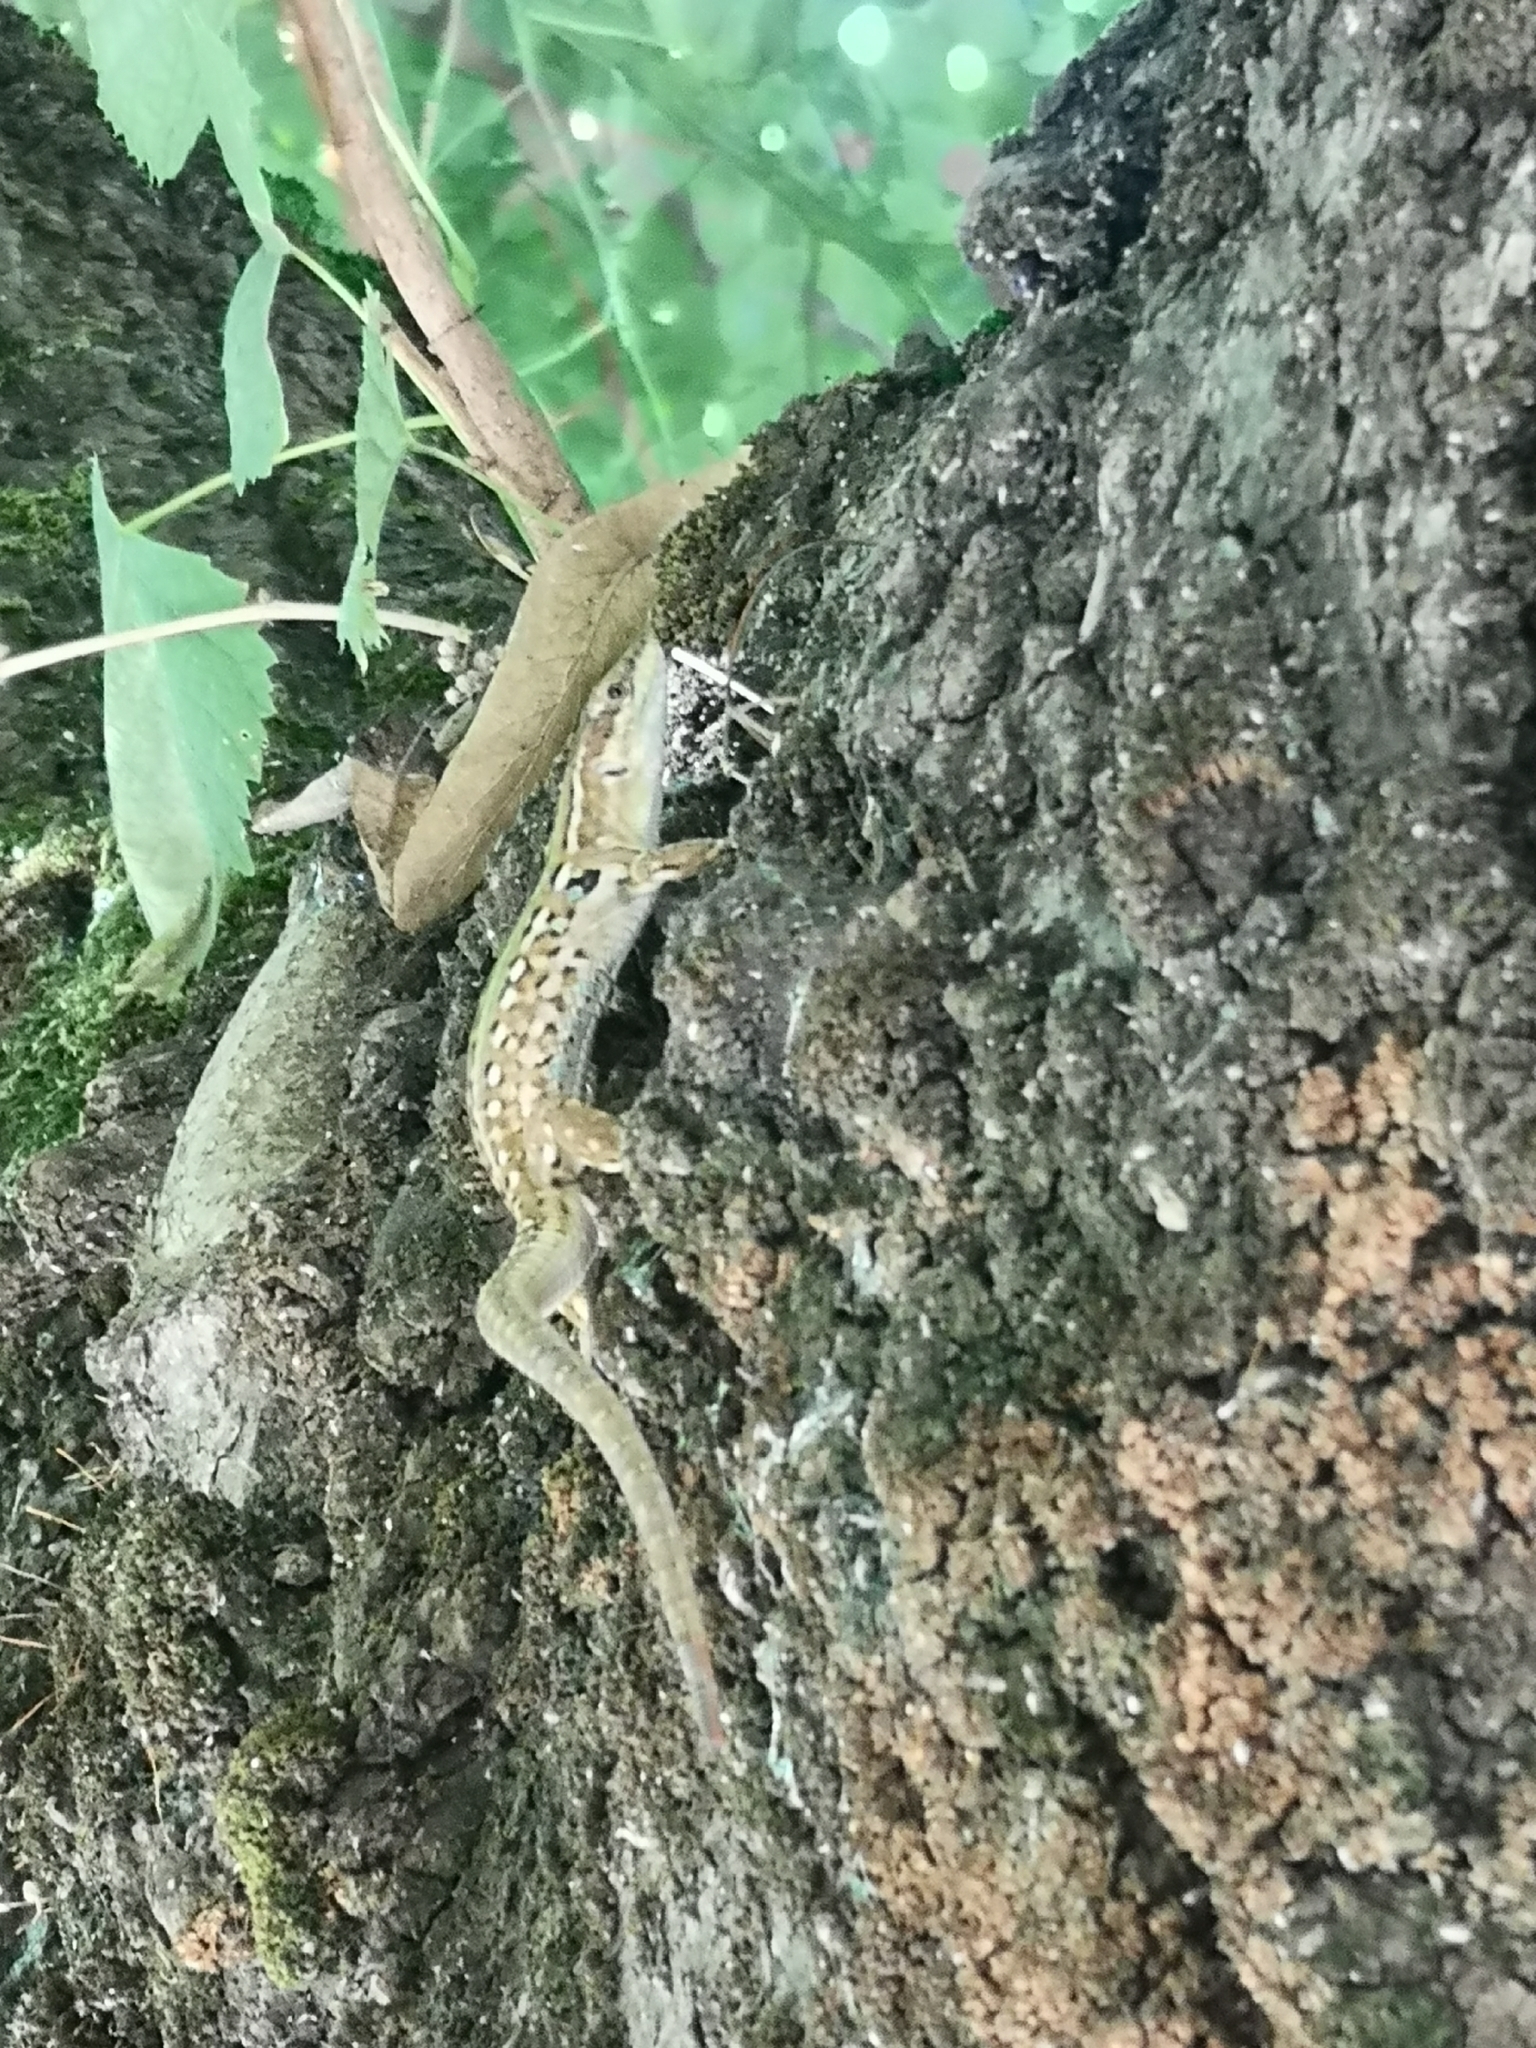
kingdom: Animalia
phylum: Chordata
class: Squamata
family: Lacertidae
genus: Podarcis
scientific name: Podarcis siculus
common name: Italian wall lizard
